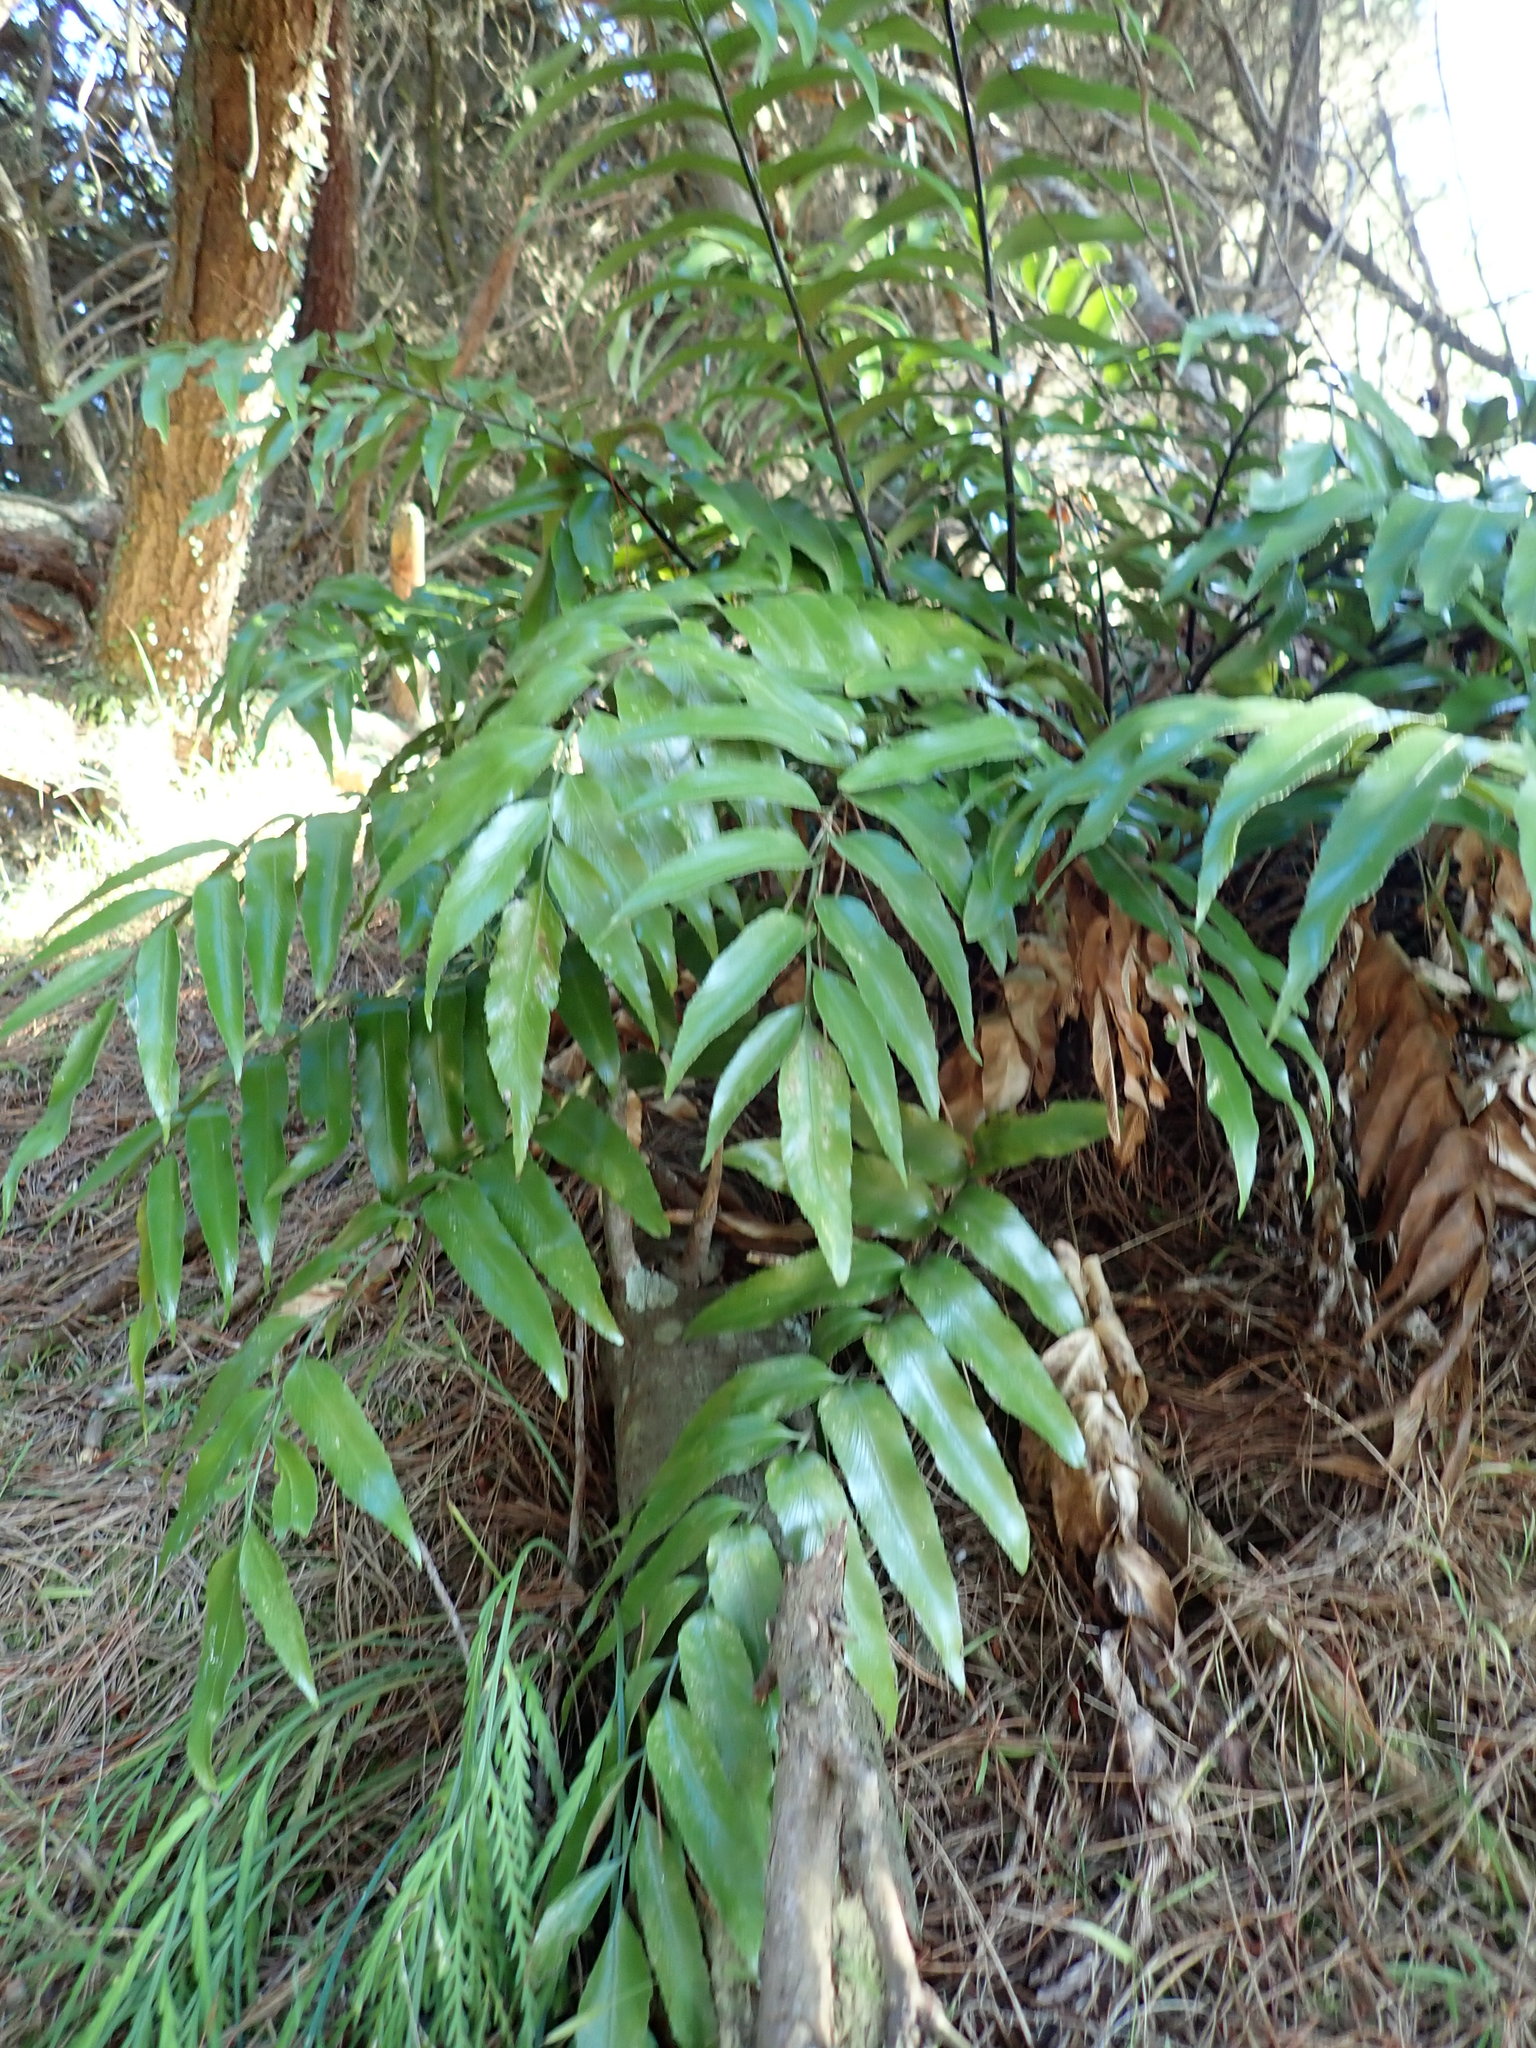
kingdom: Plantae
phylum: Tracheophyta
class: Polypodiopsida
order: Polypodiales
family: Aspleniaceae
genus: Asplenium
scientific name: Asplenium oblongifolium
